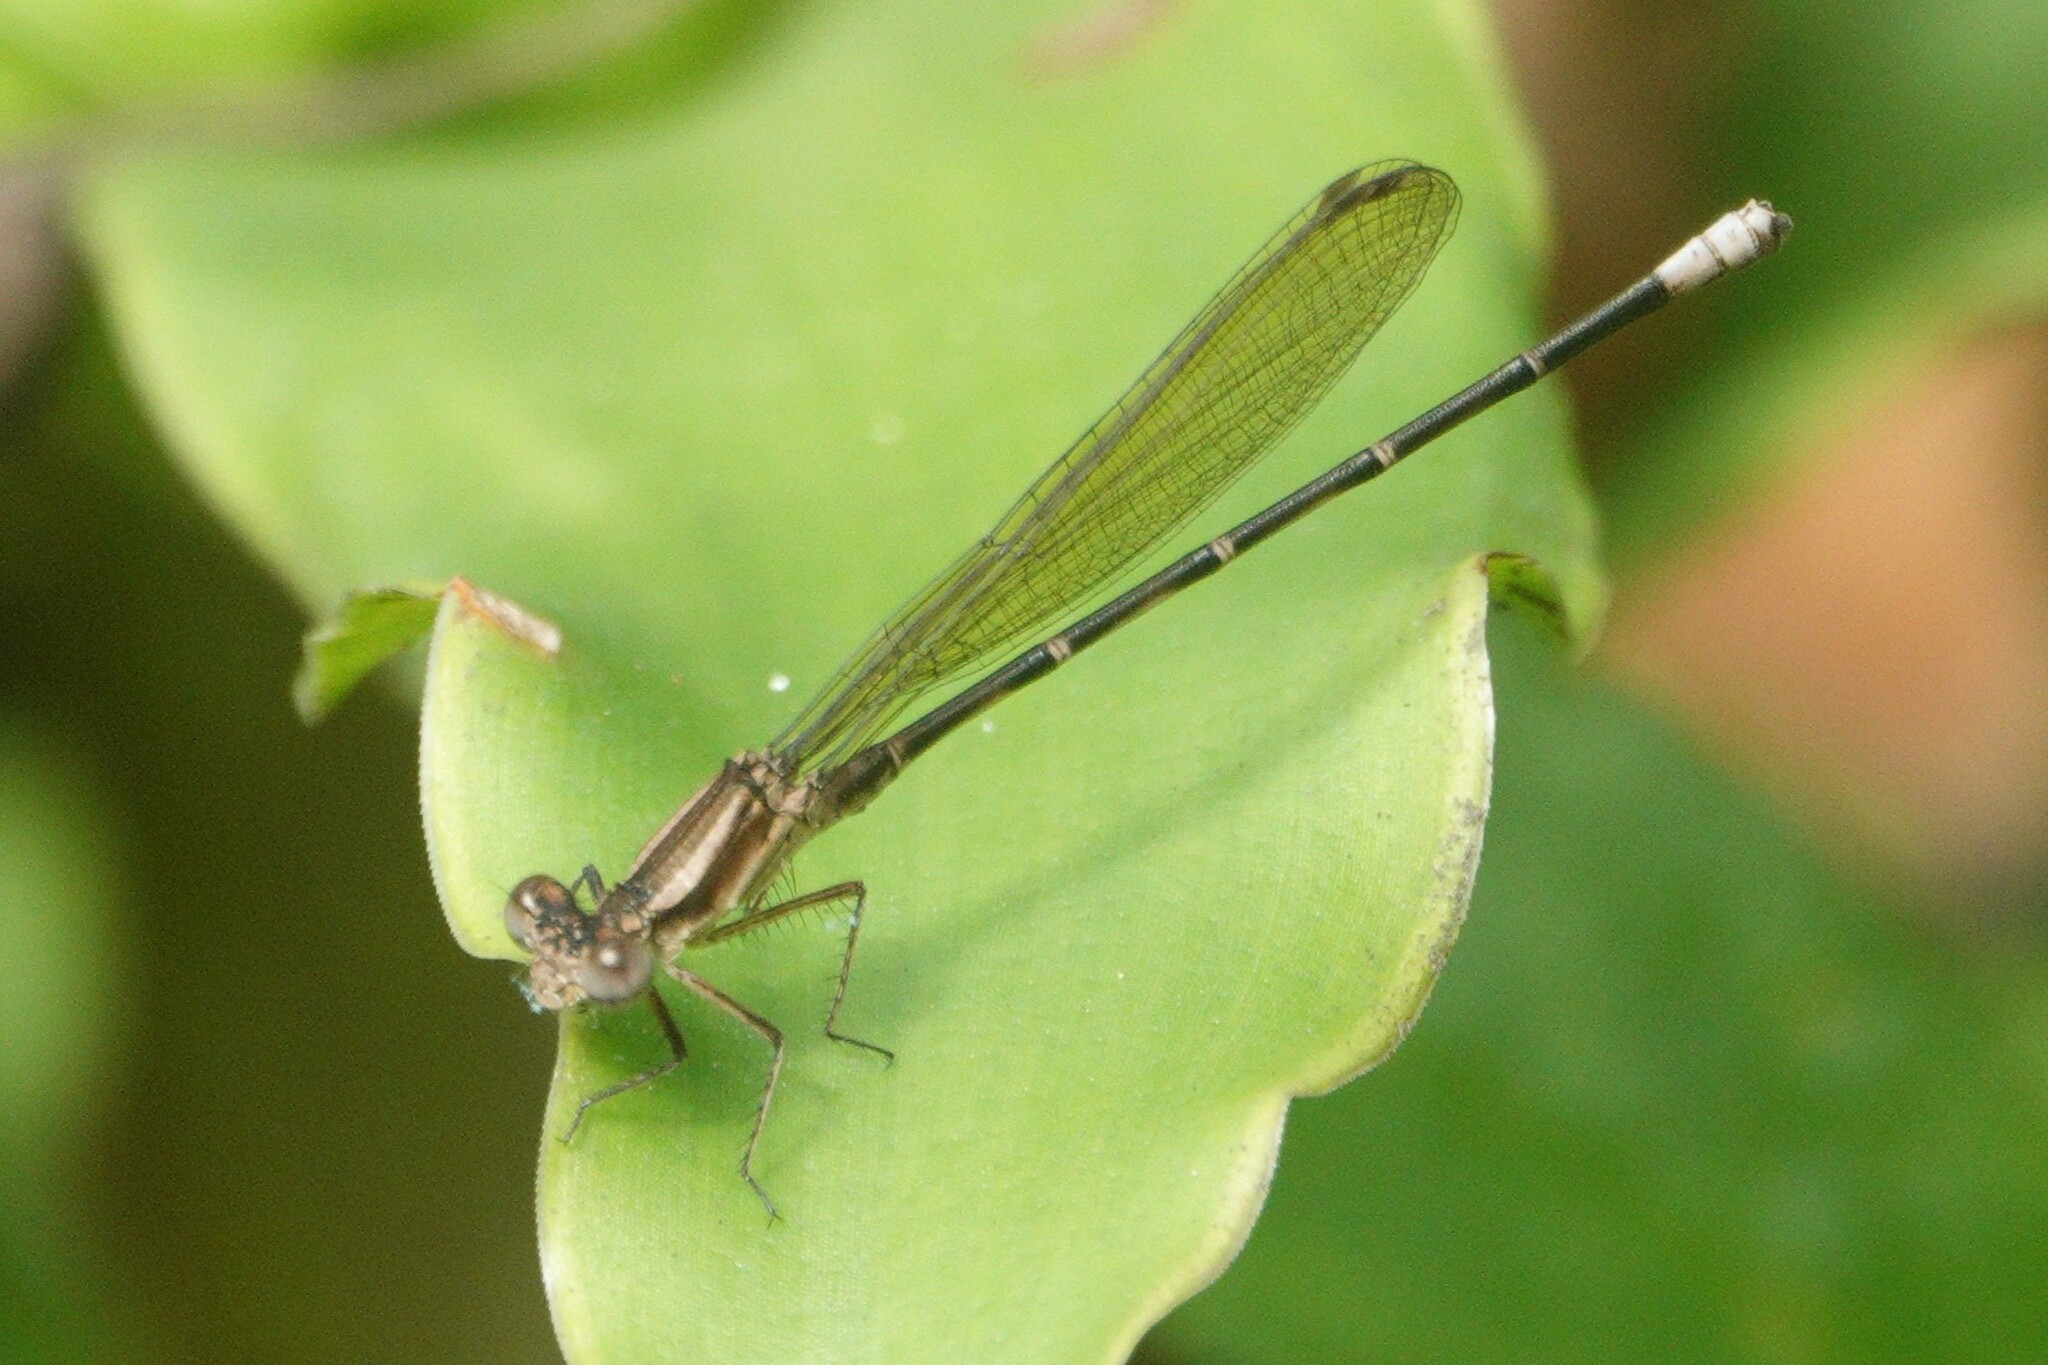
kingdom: Animalia
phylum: Arthropoda
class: Insecta
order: Odonata
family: Coenagrionidae
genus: Argia
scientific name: Argia sedula
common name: Blue-ringed dancer
